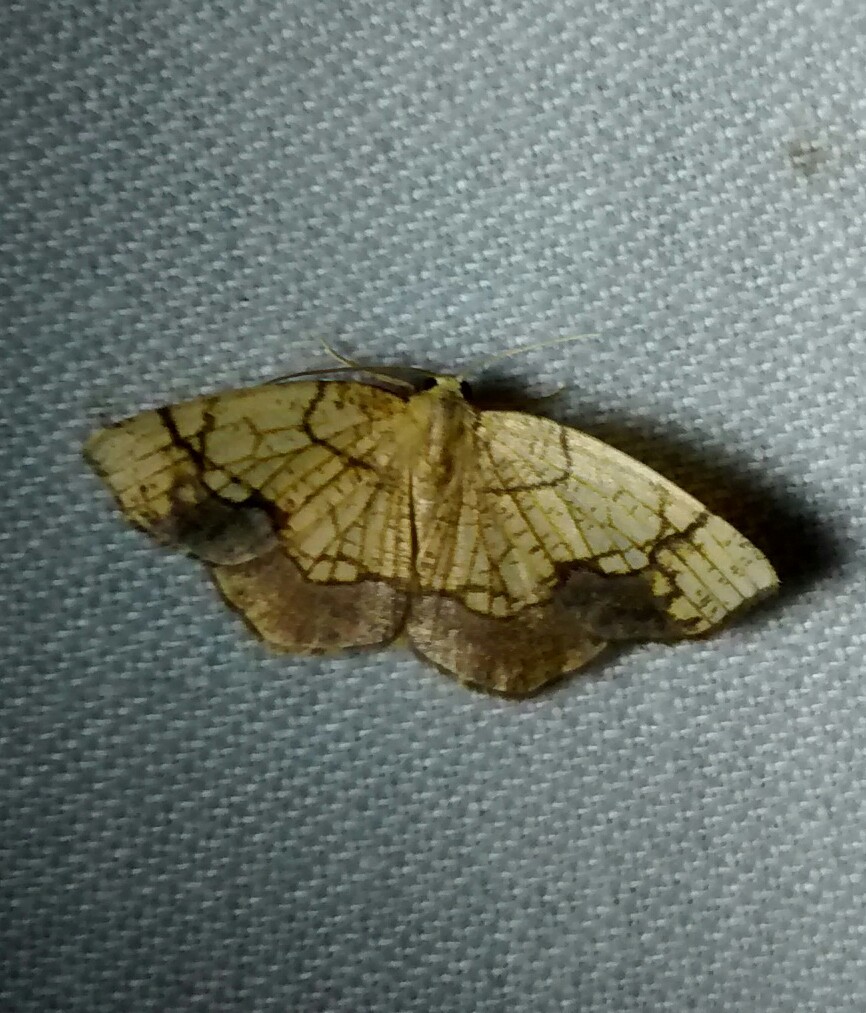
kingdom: Animalia
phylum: Arthropoda
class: Insecta
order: Lepidoptera
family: Geometridae
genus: Nematocampa
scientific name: Nematocampa resistaria
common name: Horned spanworm moth
